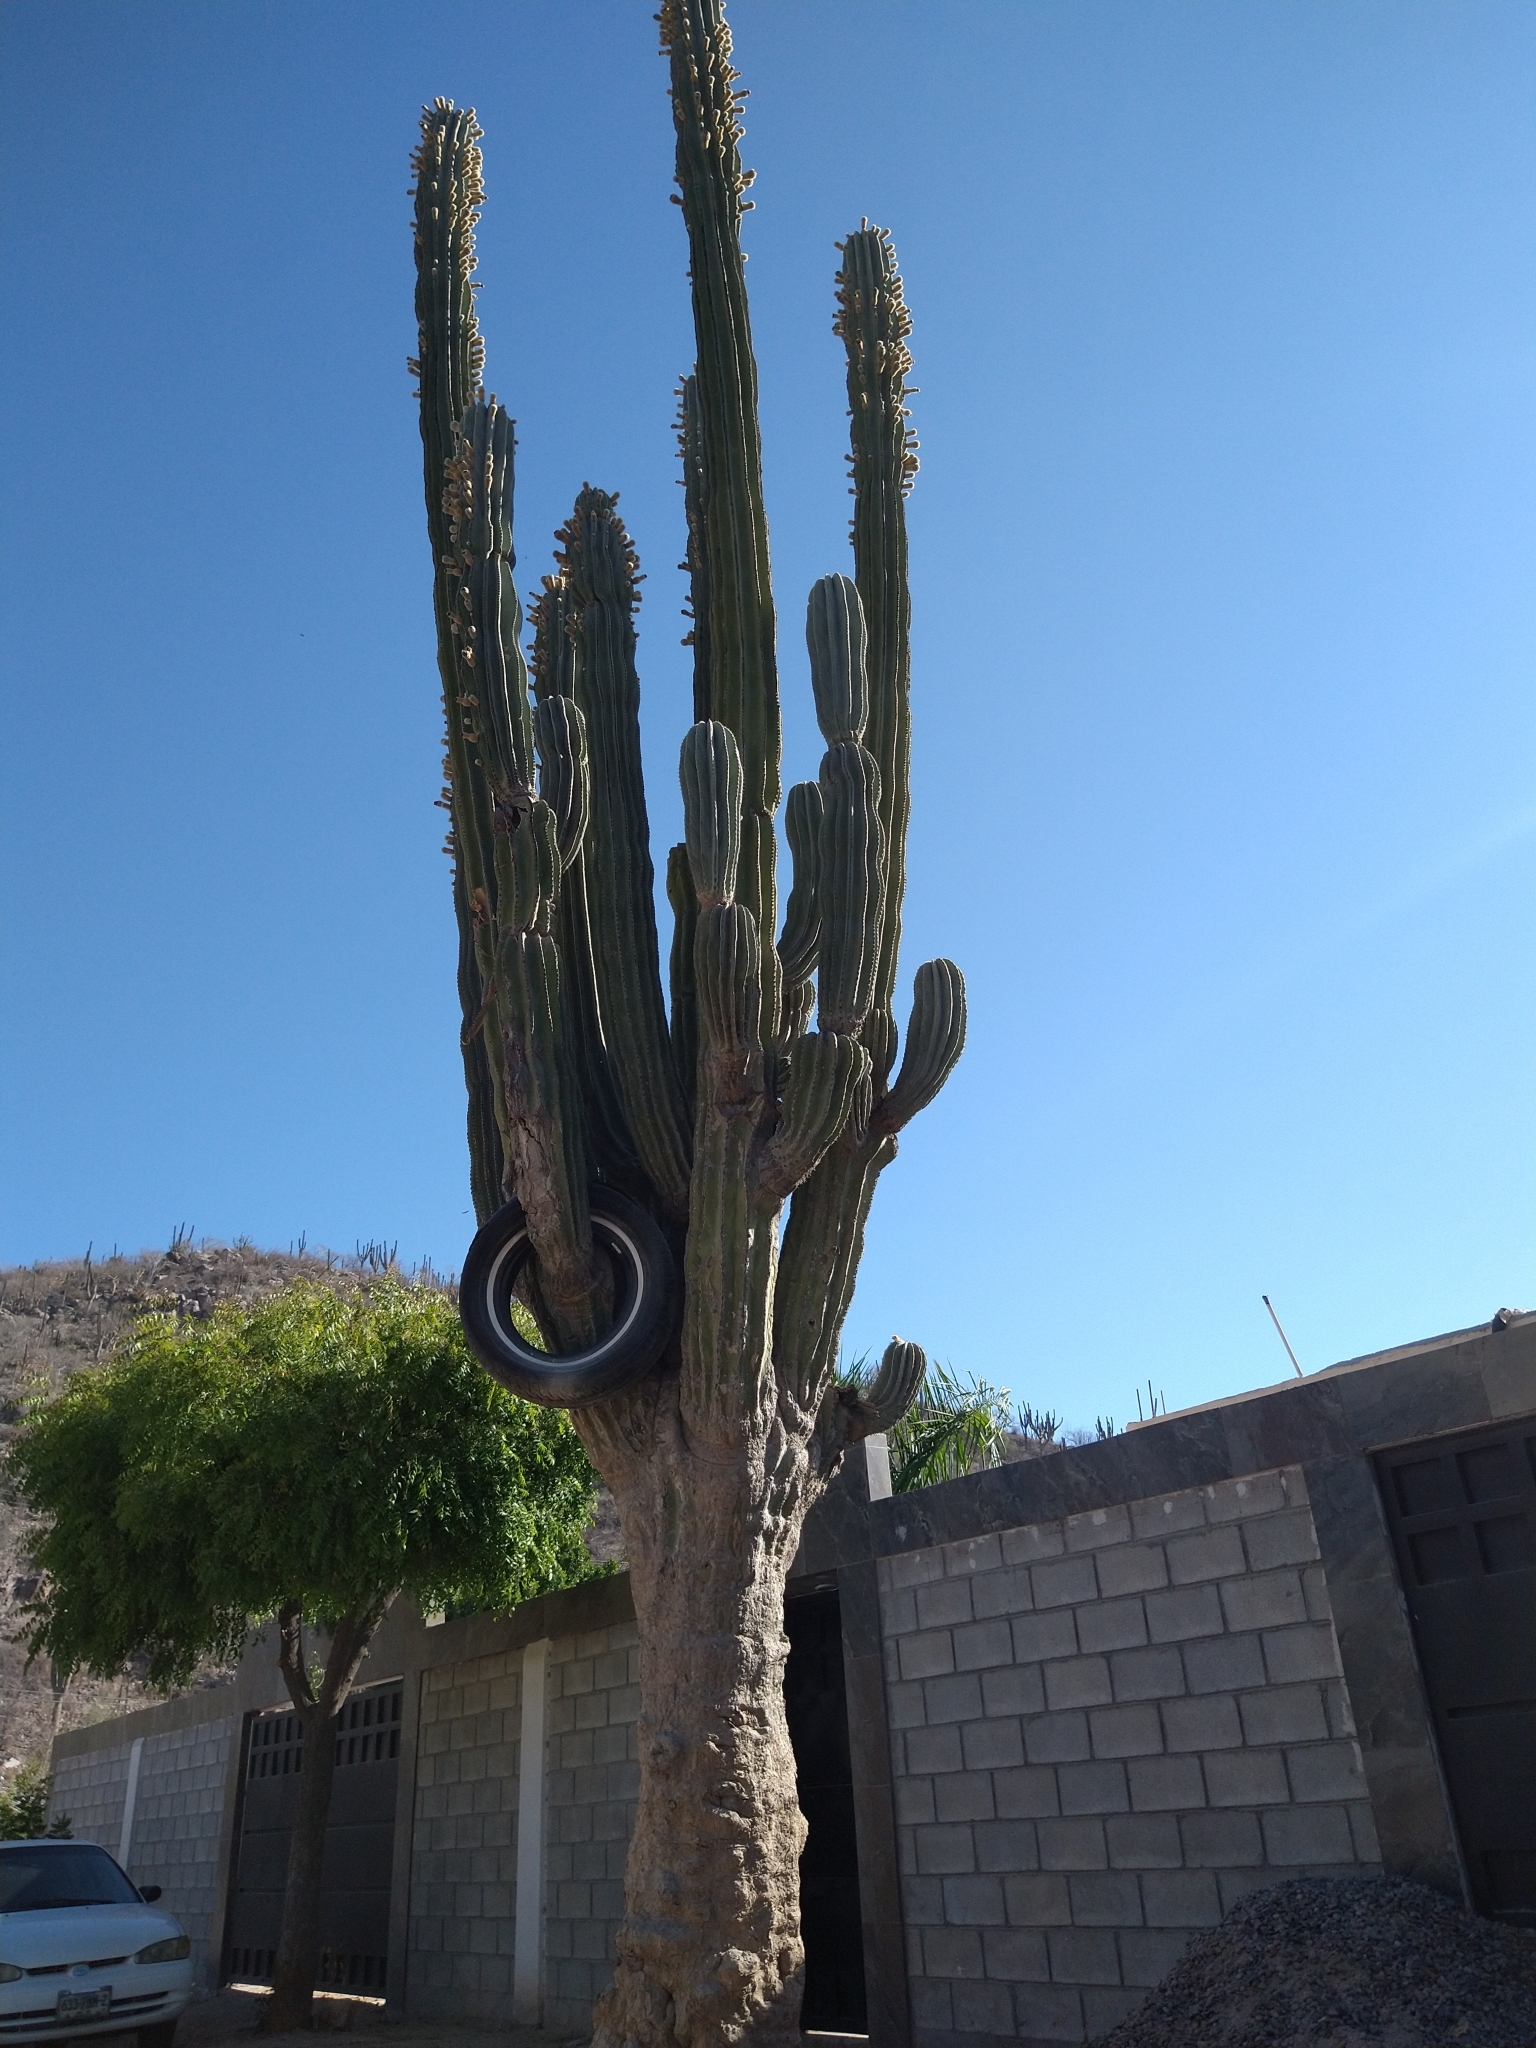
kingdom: Plantae
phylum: Tracheophyta
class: Magnoliopsida
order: Caryophyllales
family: Cactaceae
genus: Pachycereus
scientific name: Pachycereus pringlei
